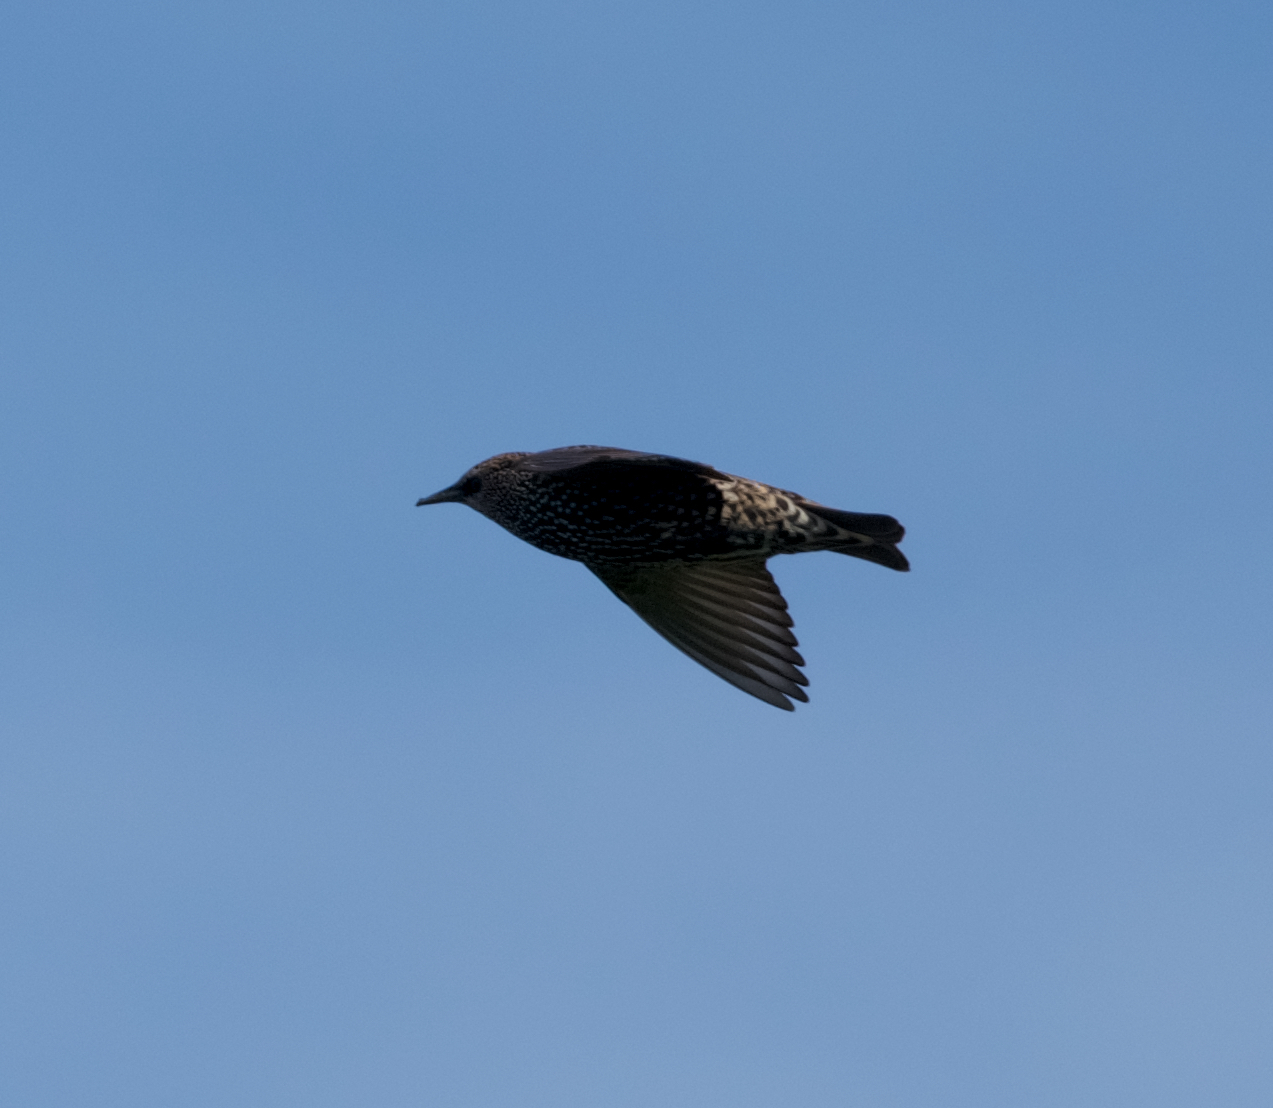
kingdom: Animalia
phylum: Chordata
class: Aves
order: Passeriformes
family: Sturnidae
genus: Sturnus
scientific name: Sturnus vulgaris
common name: Common starling
